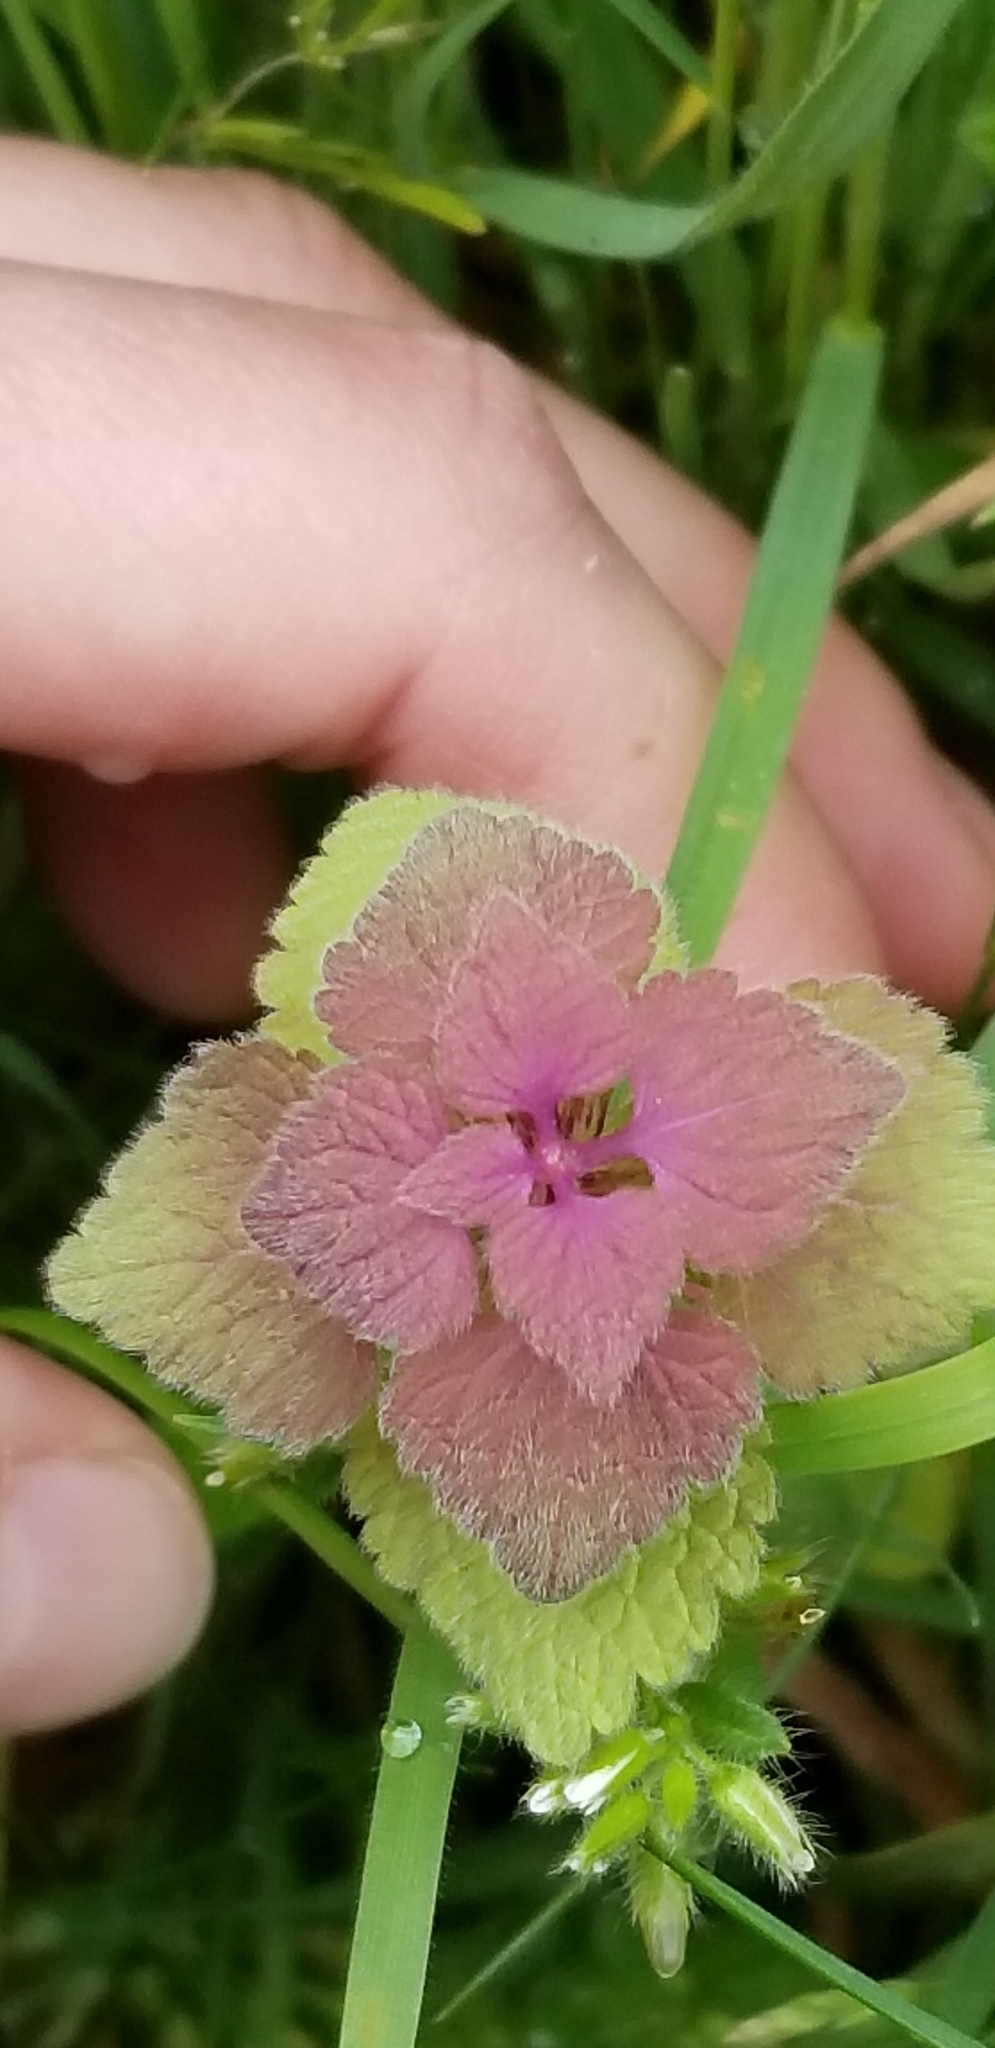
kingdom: Plantae
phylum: Tracheophyta
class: Magnoliopsida
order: Lamiales
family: Lamiaceae
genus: Lamium
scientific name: Lamium purpureum
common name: Red dead-nettle
